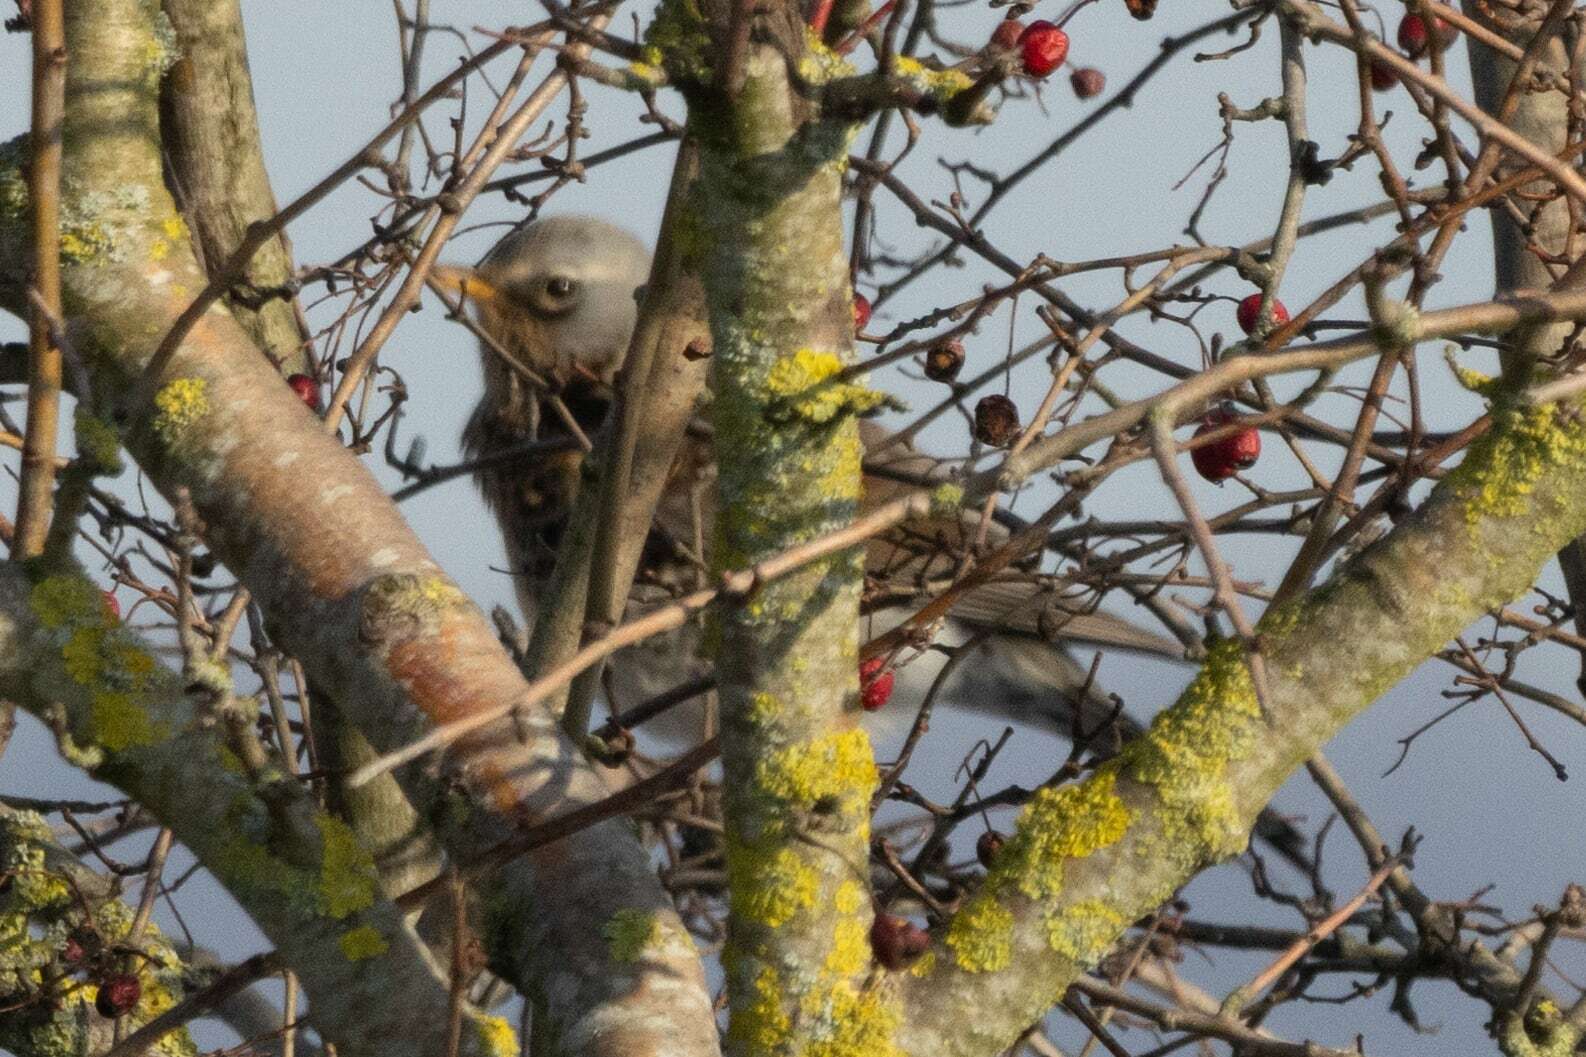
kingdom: Animalia
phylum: Chordata
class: Aves
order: Passeriformes
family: Turdidae
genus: Turdus
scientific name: Turdus pilaris
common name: Fieldfare
